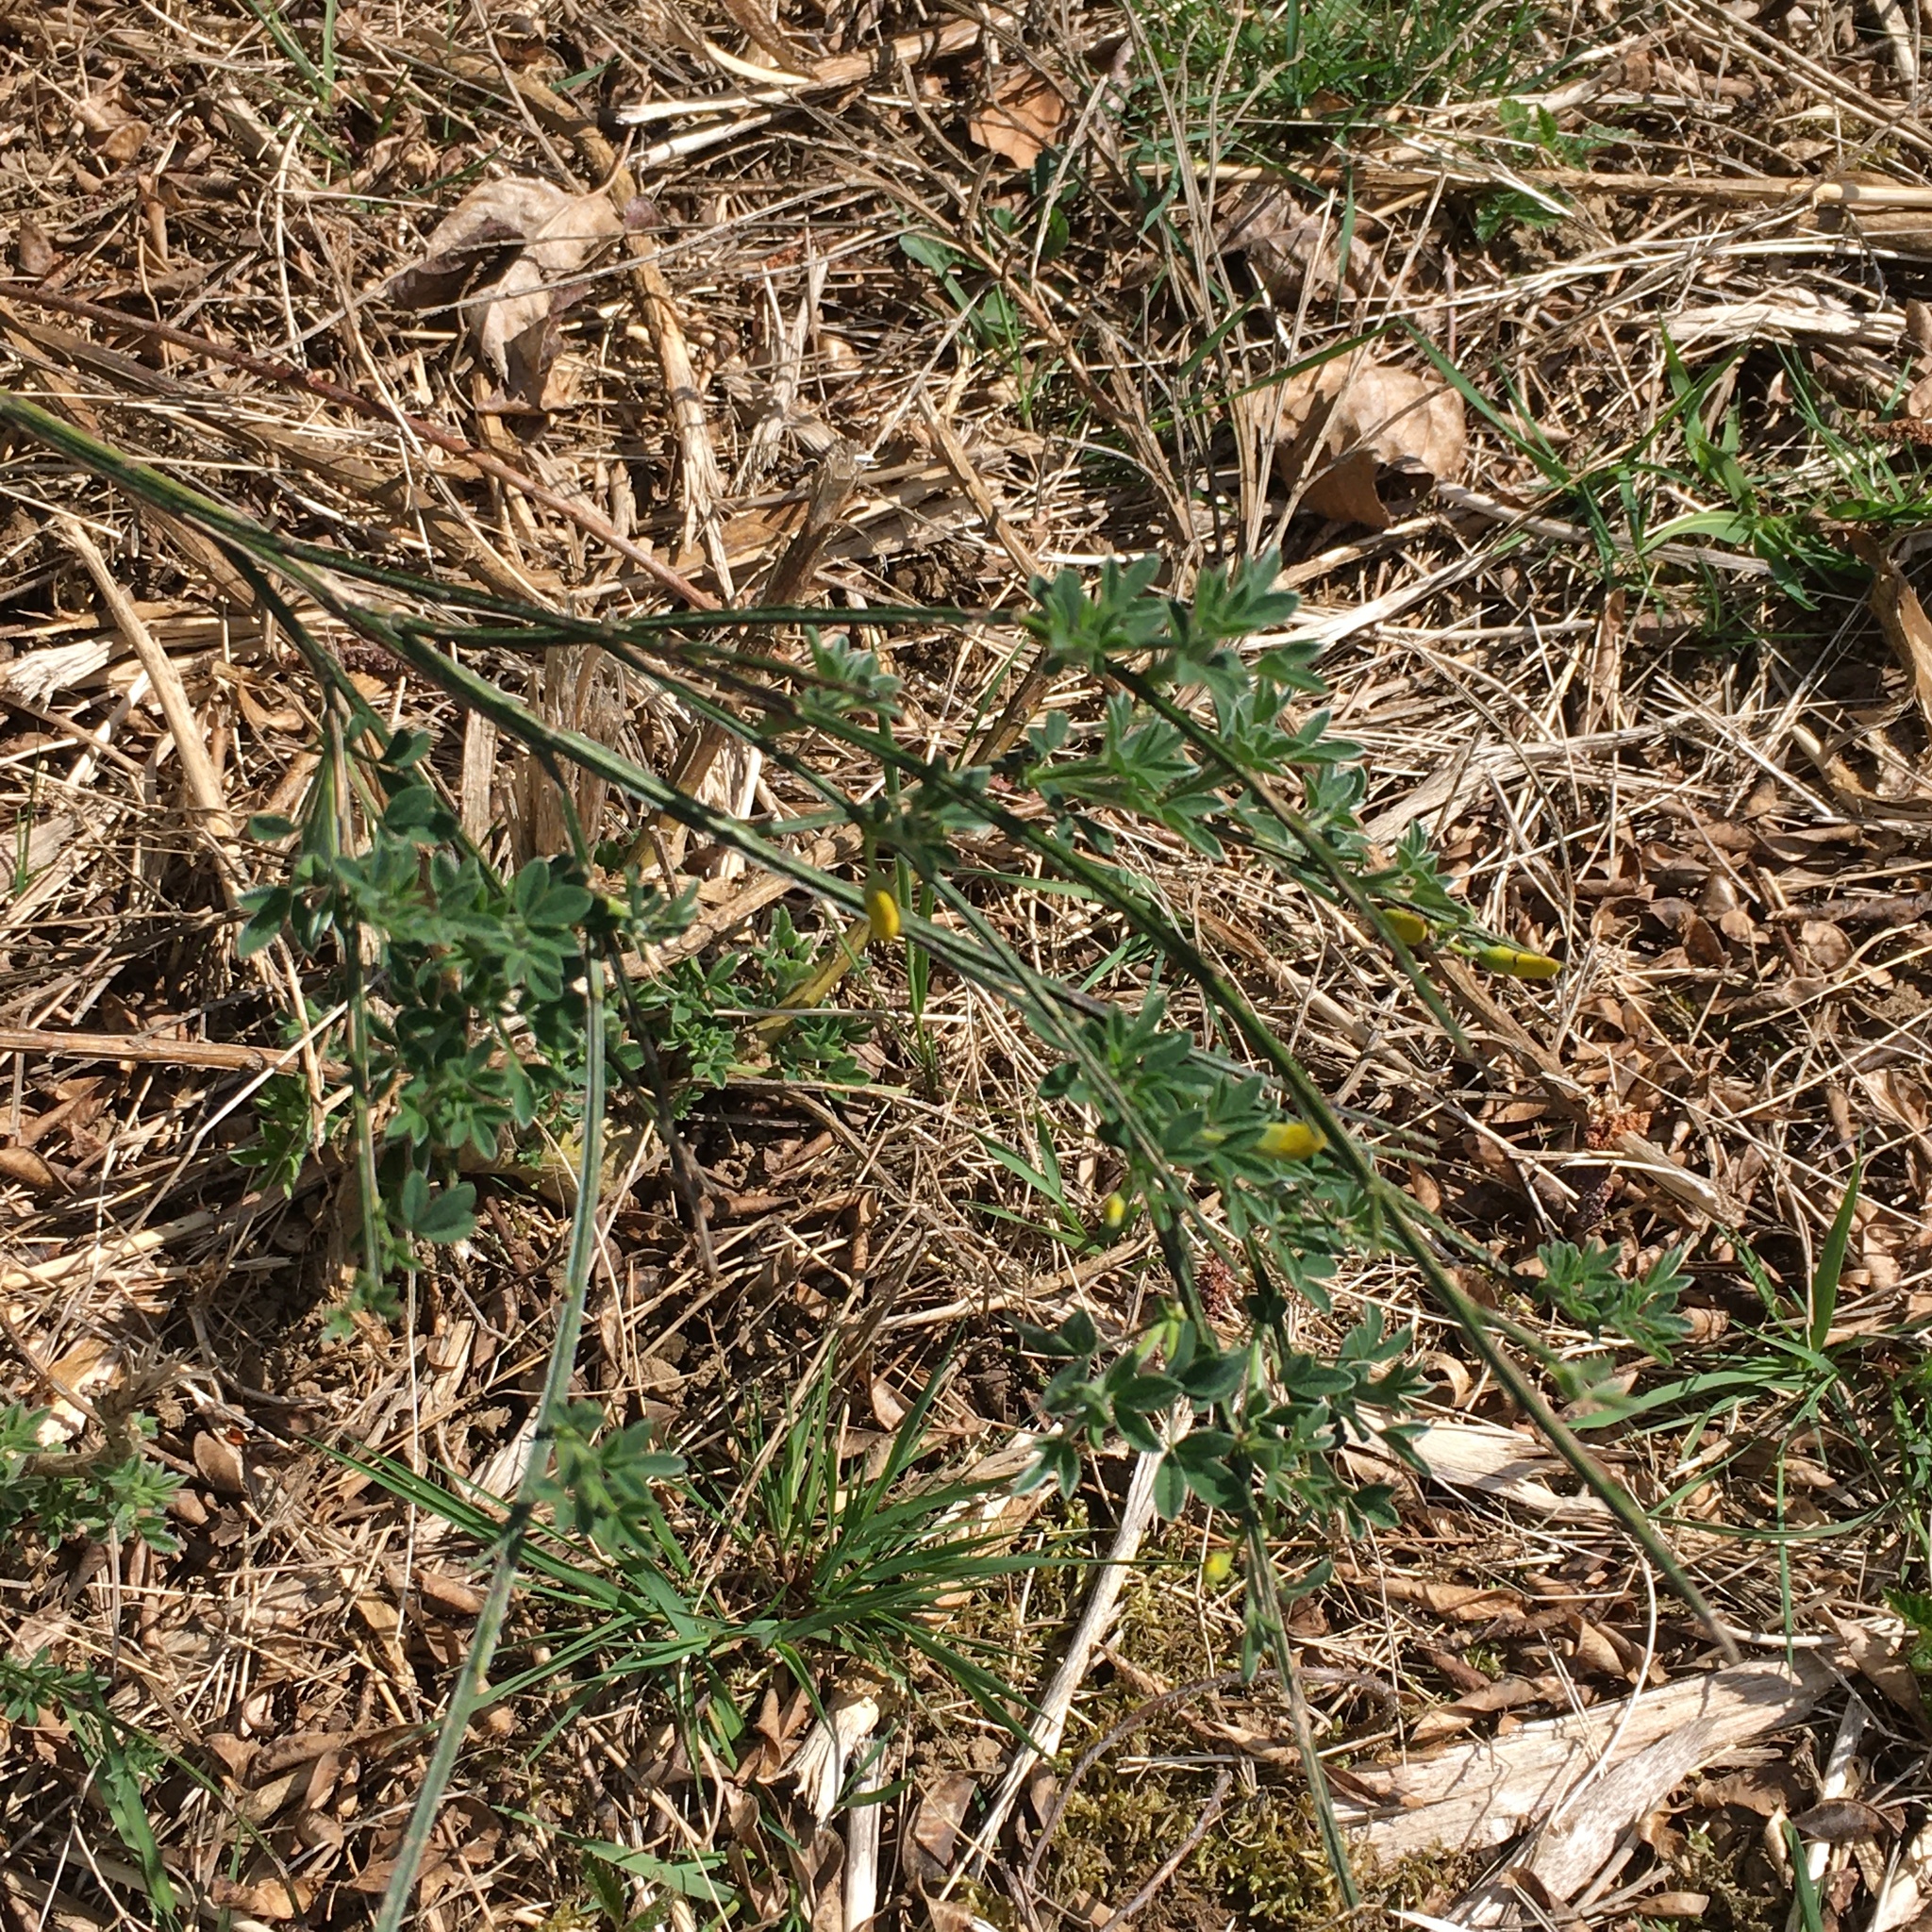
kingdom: Plantae
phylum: Tracheophyta
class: Magnoliopsida
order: Fabales
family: Fabaceae
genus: Cytisus
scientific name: Cytisus scoparius
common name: Scotch broom
